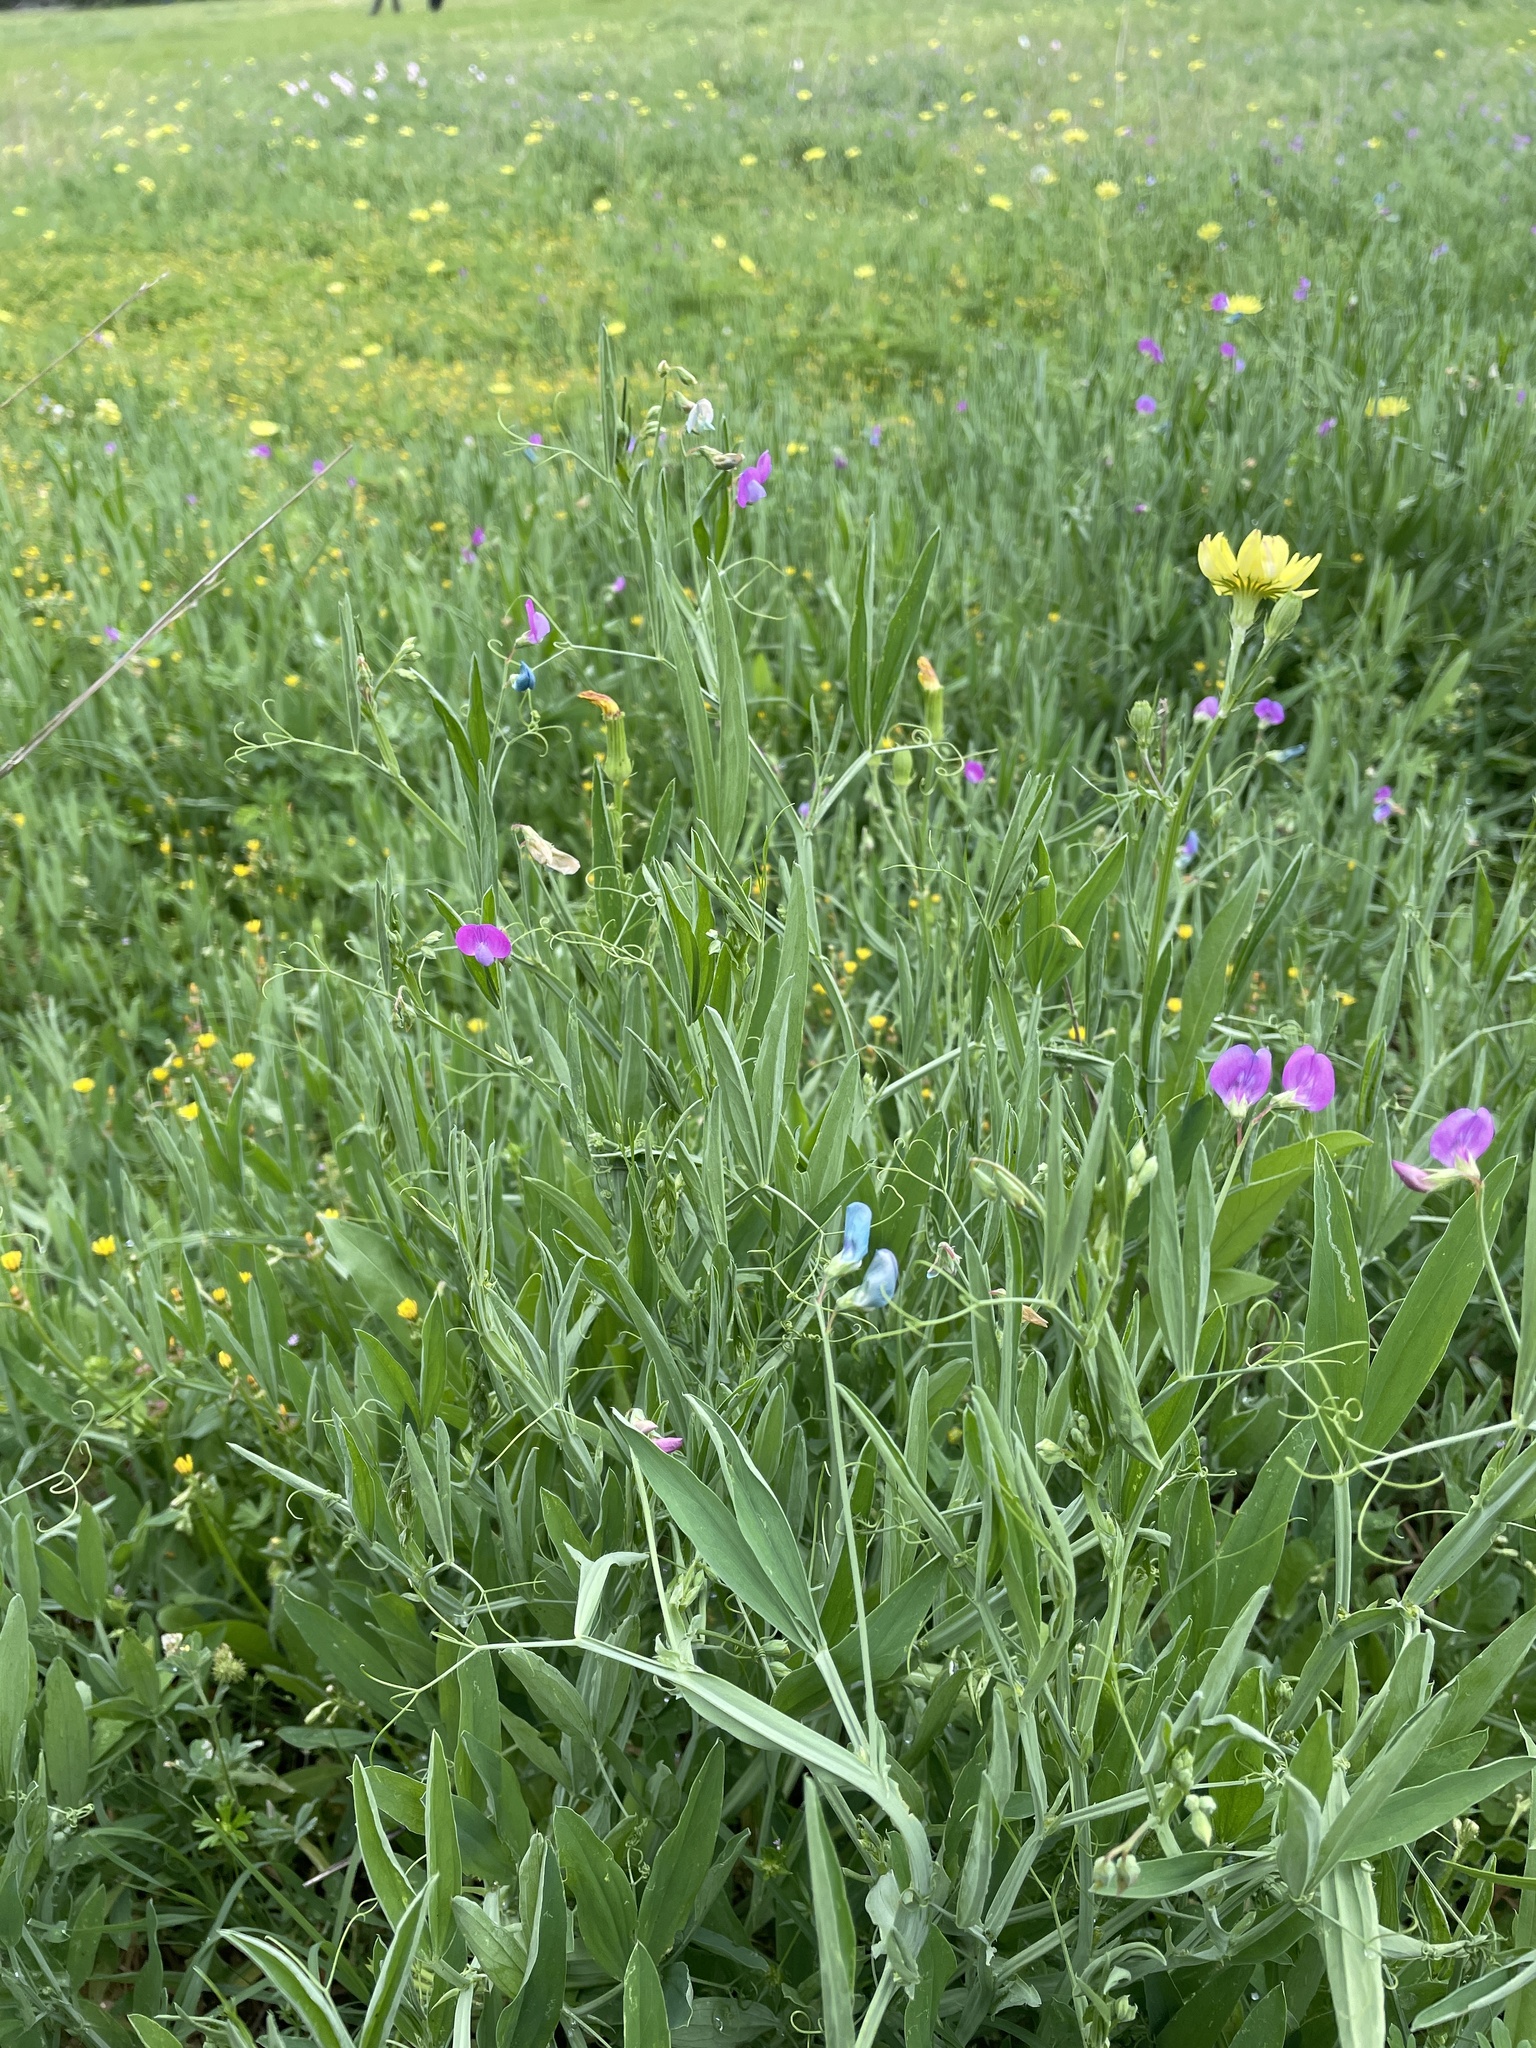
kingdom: Plantae
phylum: Tracheophyta
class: Magnoliopsida
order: Fabales
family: Fabaceae
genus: Lathyrus
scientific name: Lathyrus hirsutus
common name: Hairy vetchling
